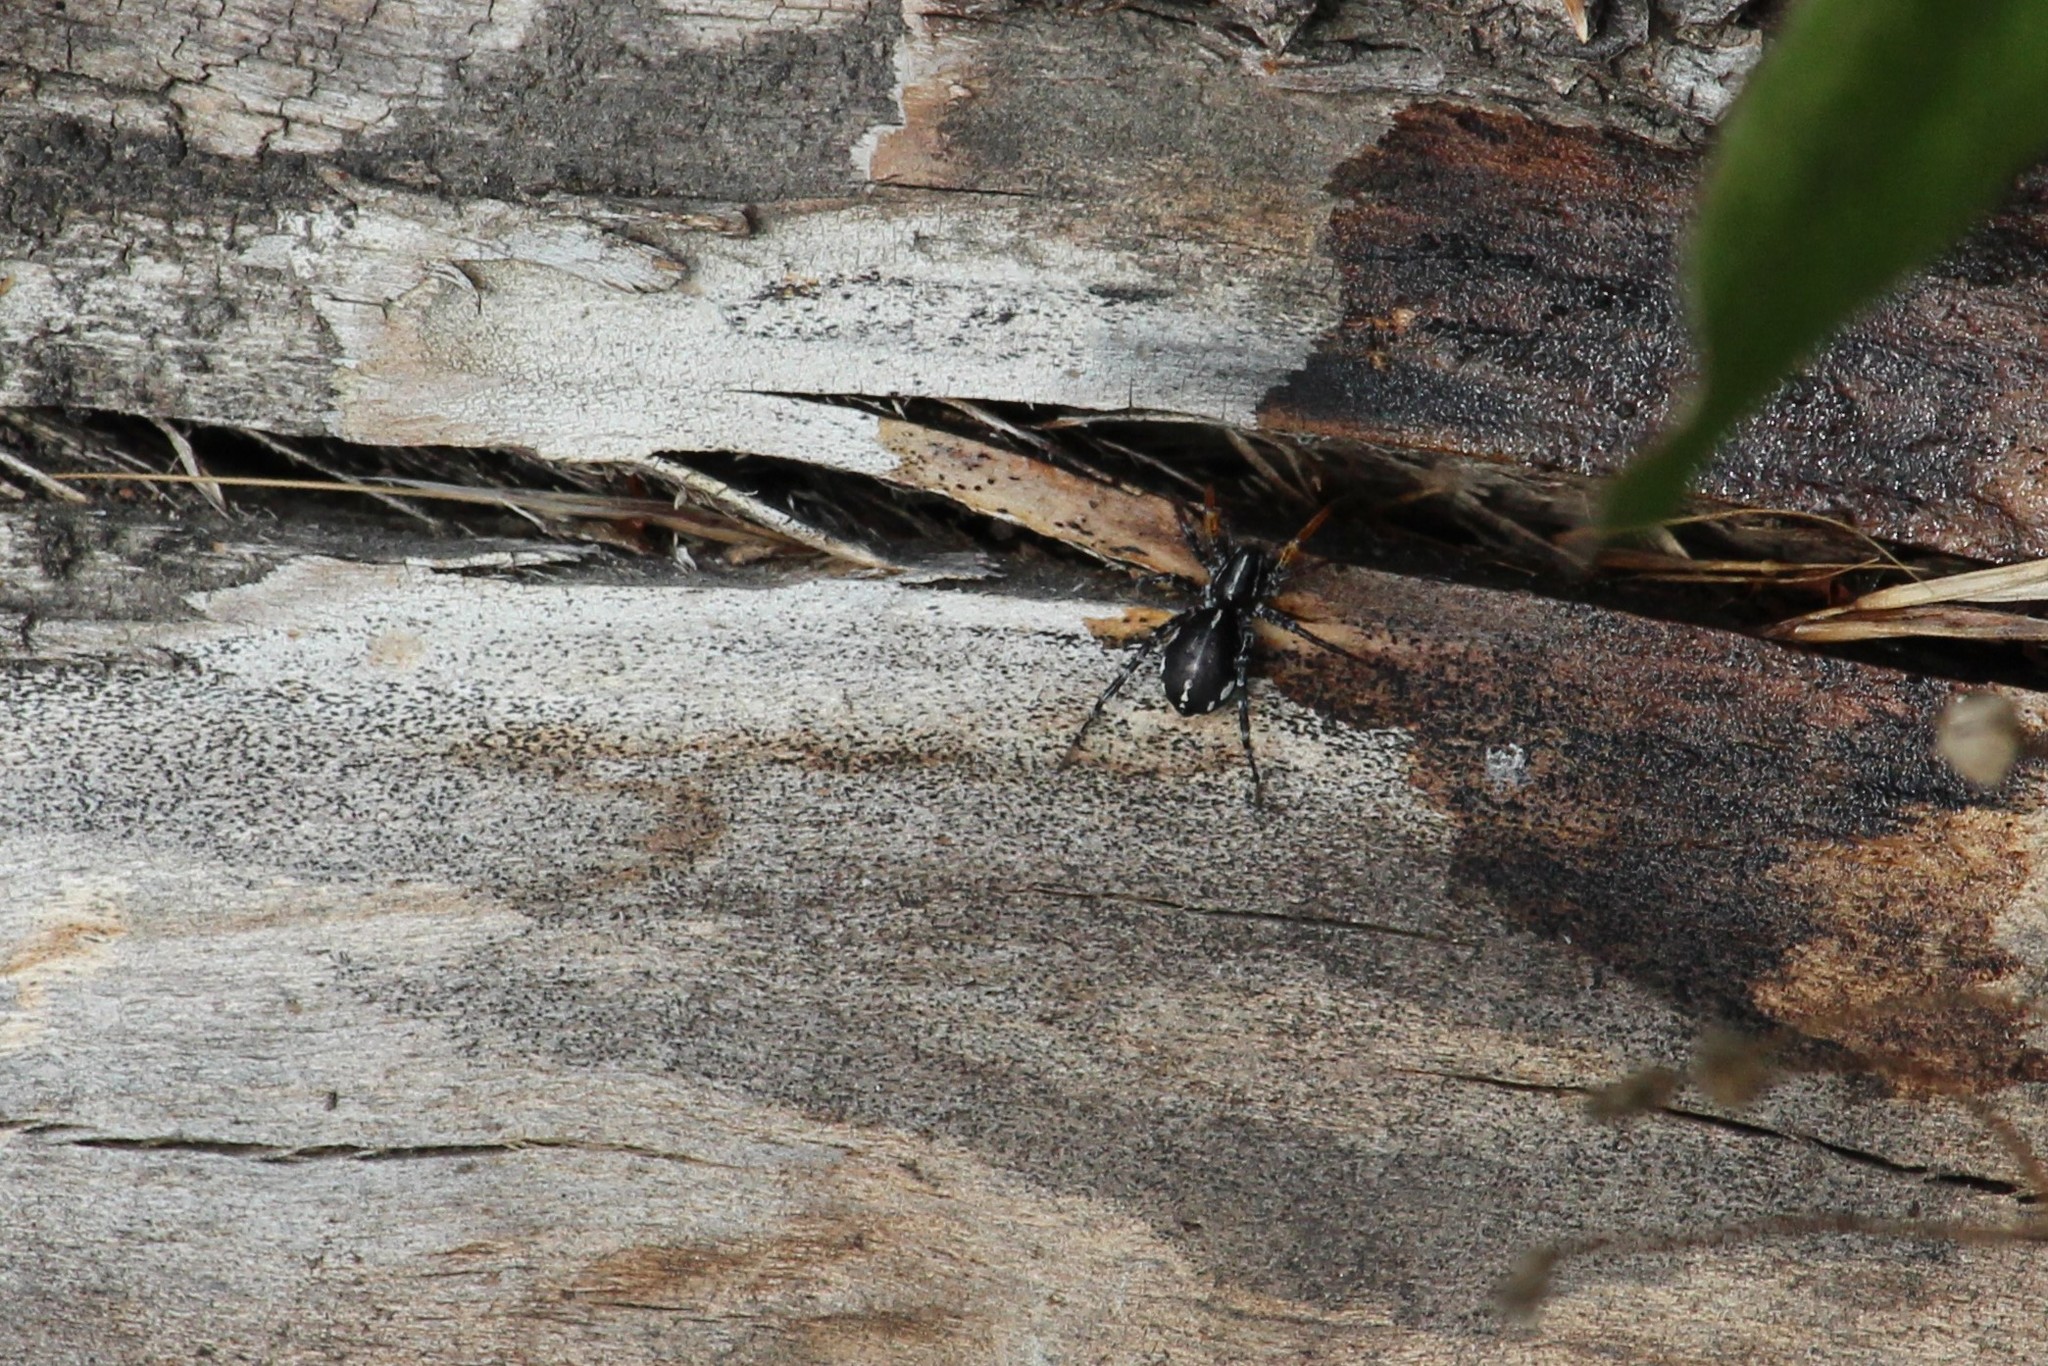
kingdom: Animalia
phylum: Arthropoda
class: Arachnida
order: Araneae
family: Corinnidae
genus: Nyssus
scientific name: Nyssus coloripes
